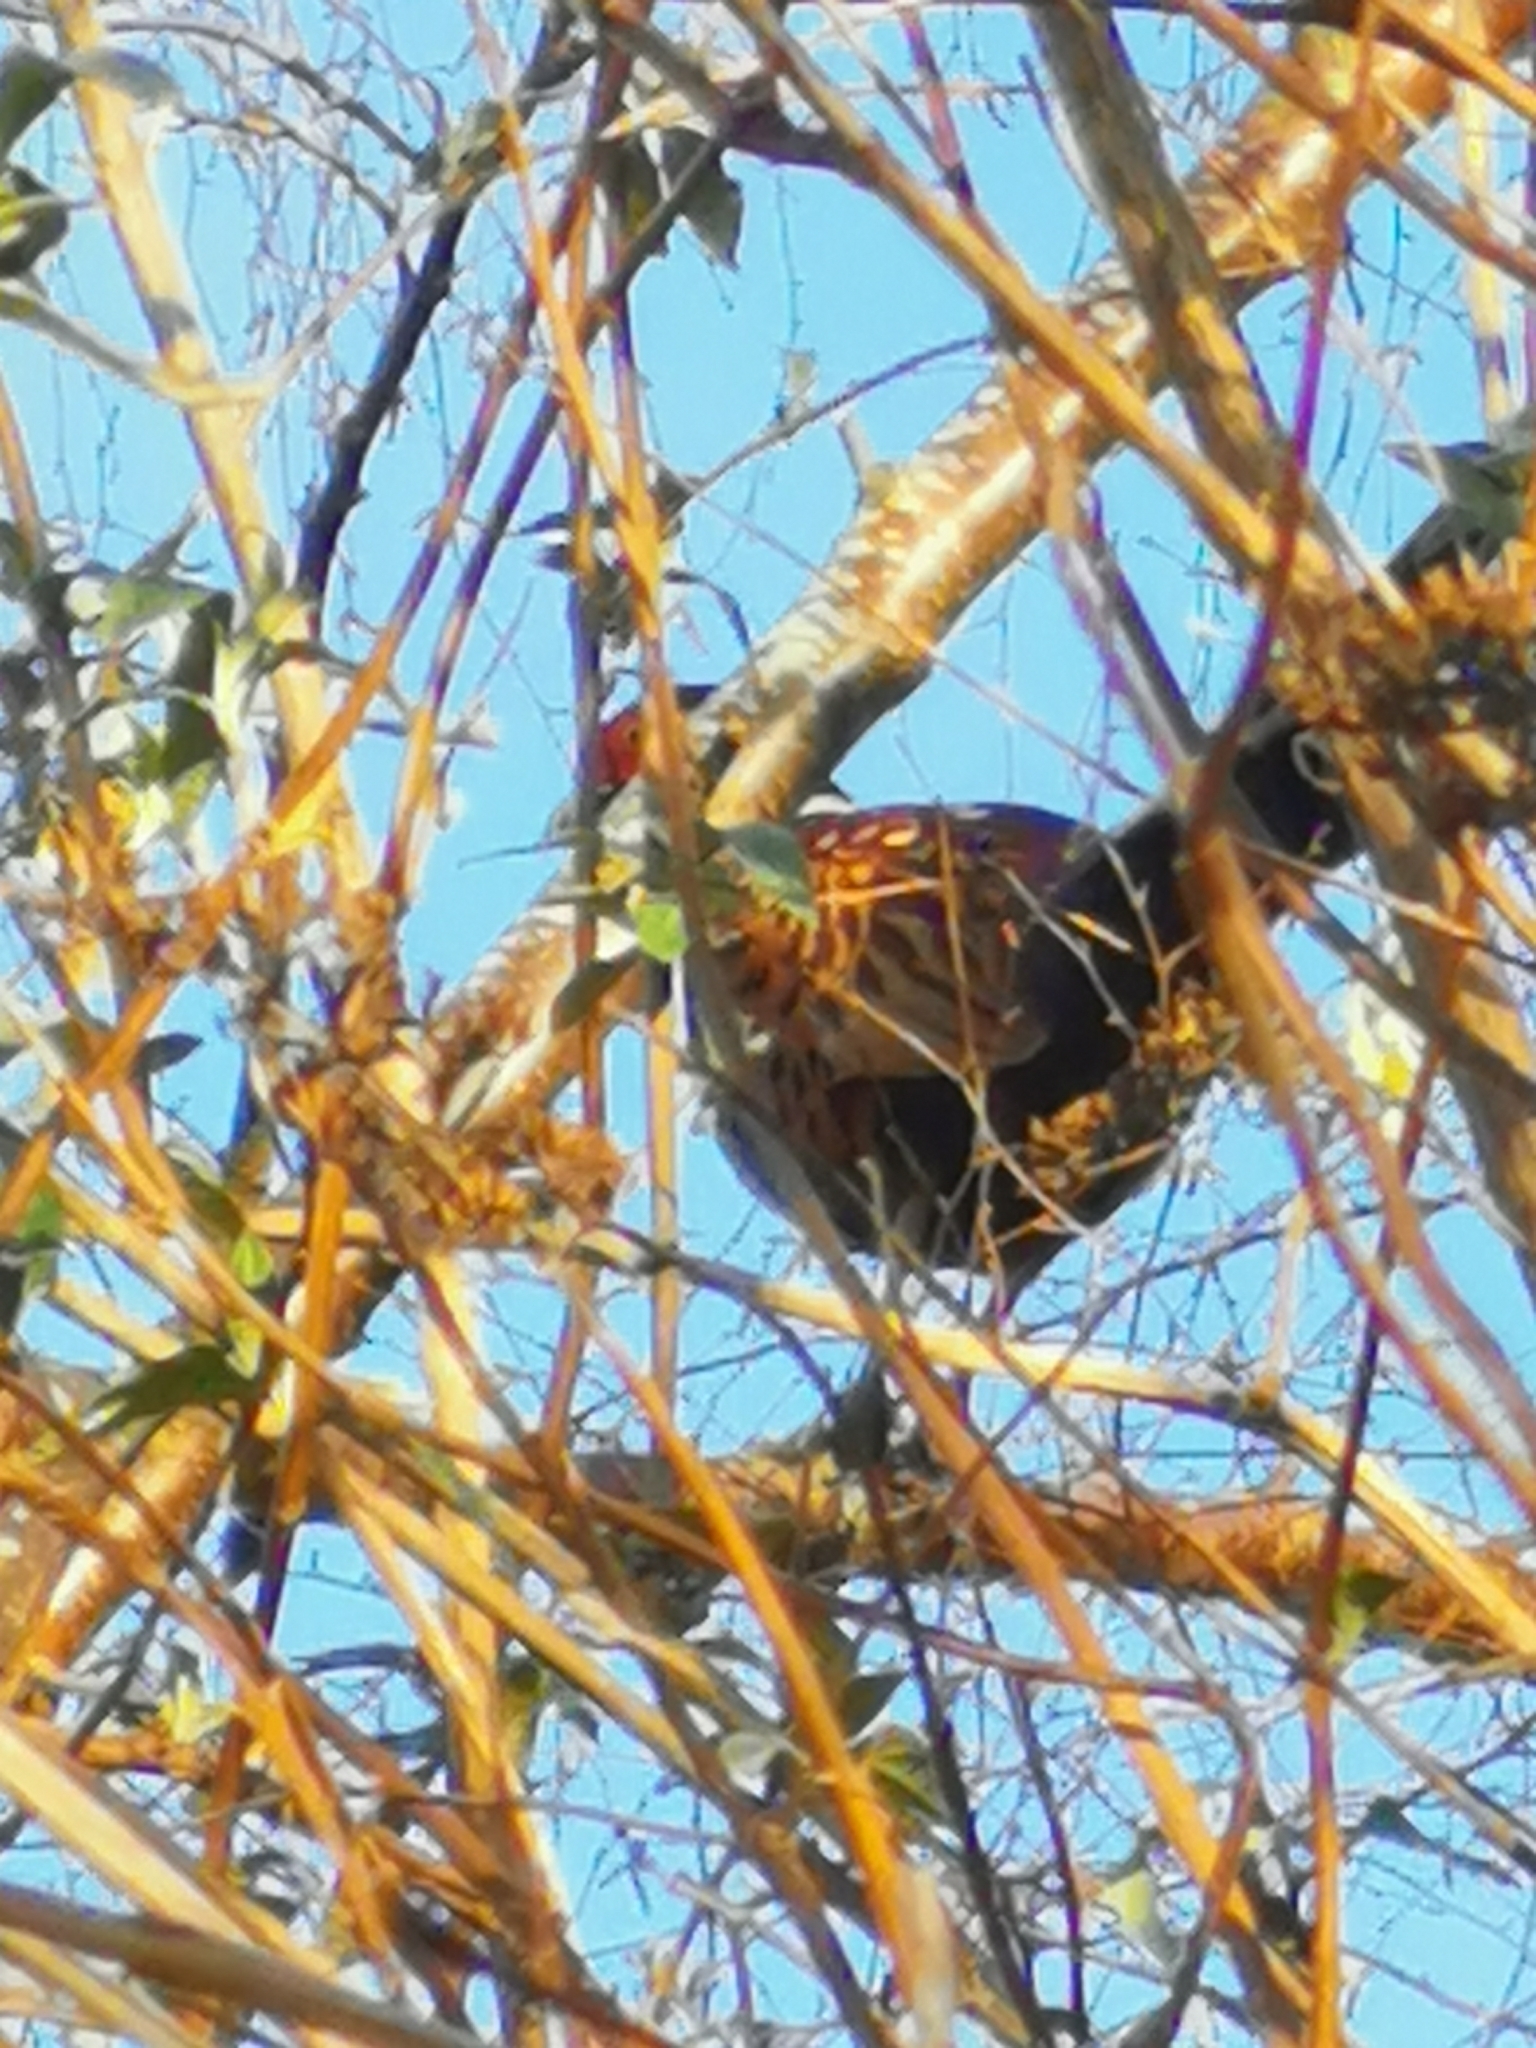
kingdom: Animalia
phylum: Chordata
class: Aves
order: Galliformes
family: Phasianidae
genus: Phasianus
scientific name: Phasianus colchicus
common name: Common pheasant
